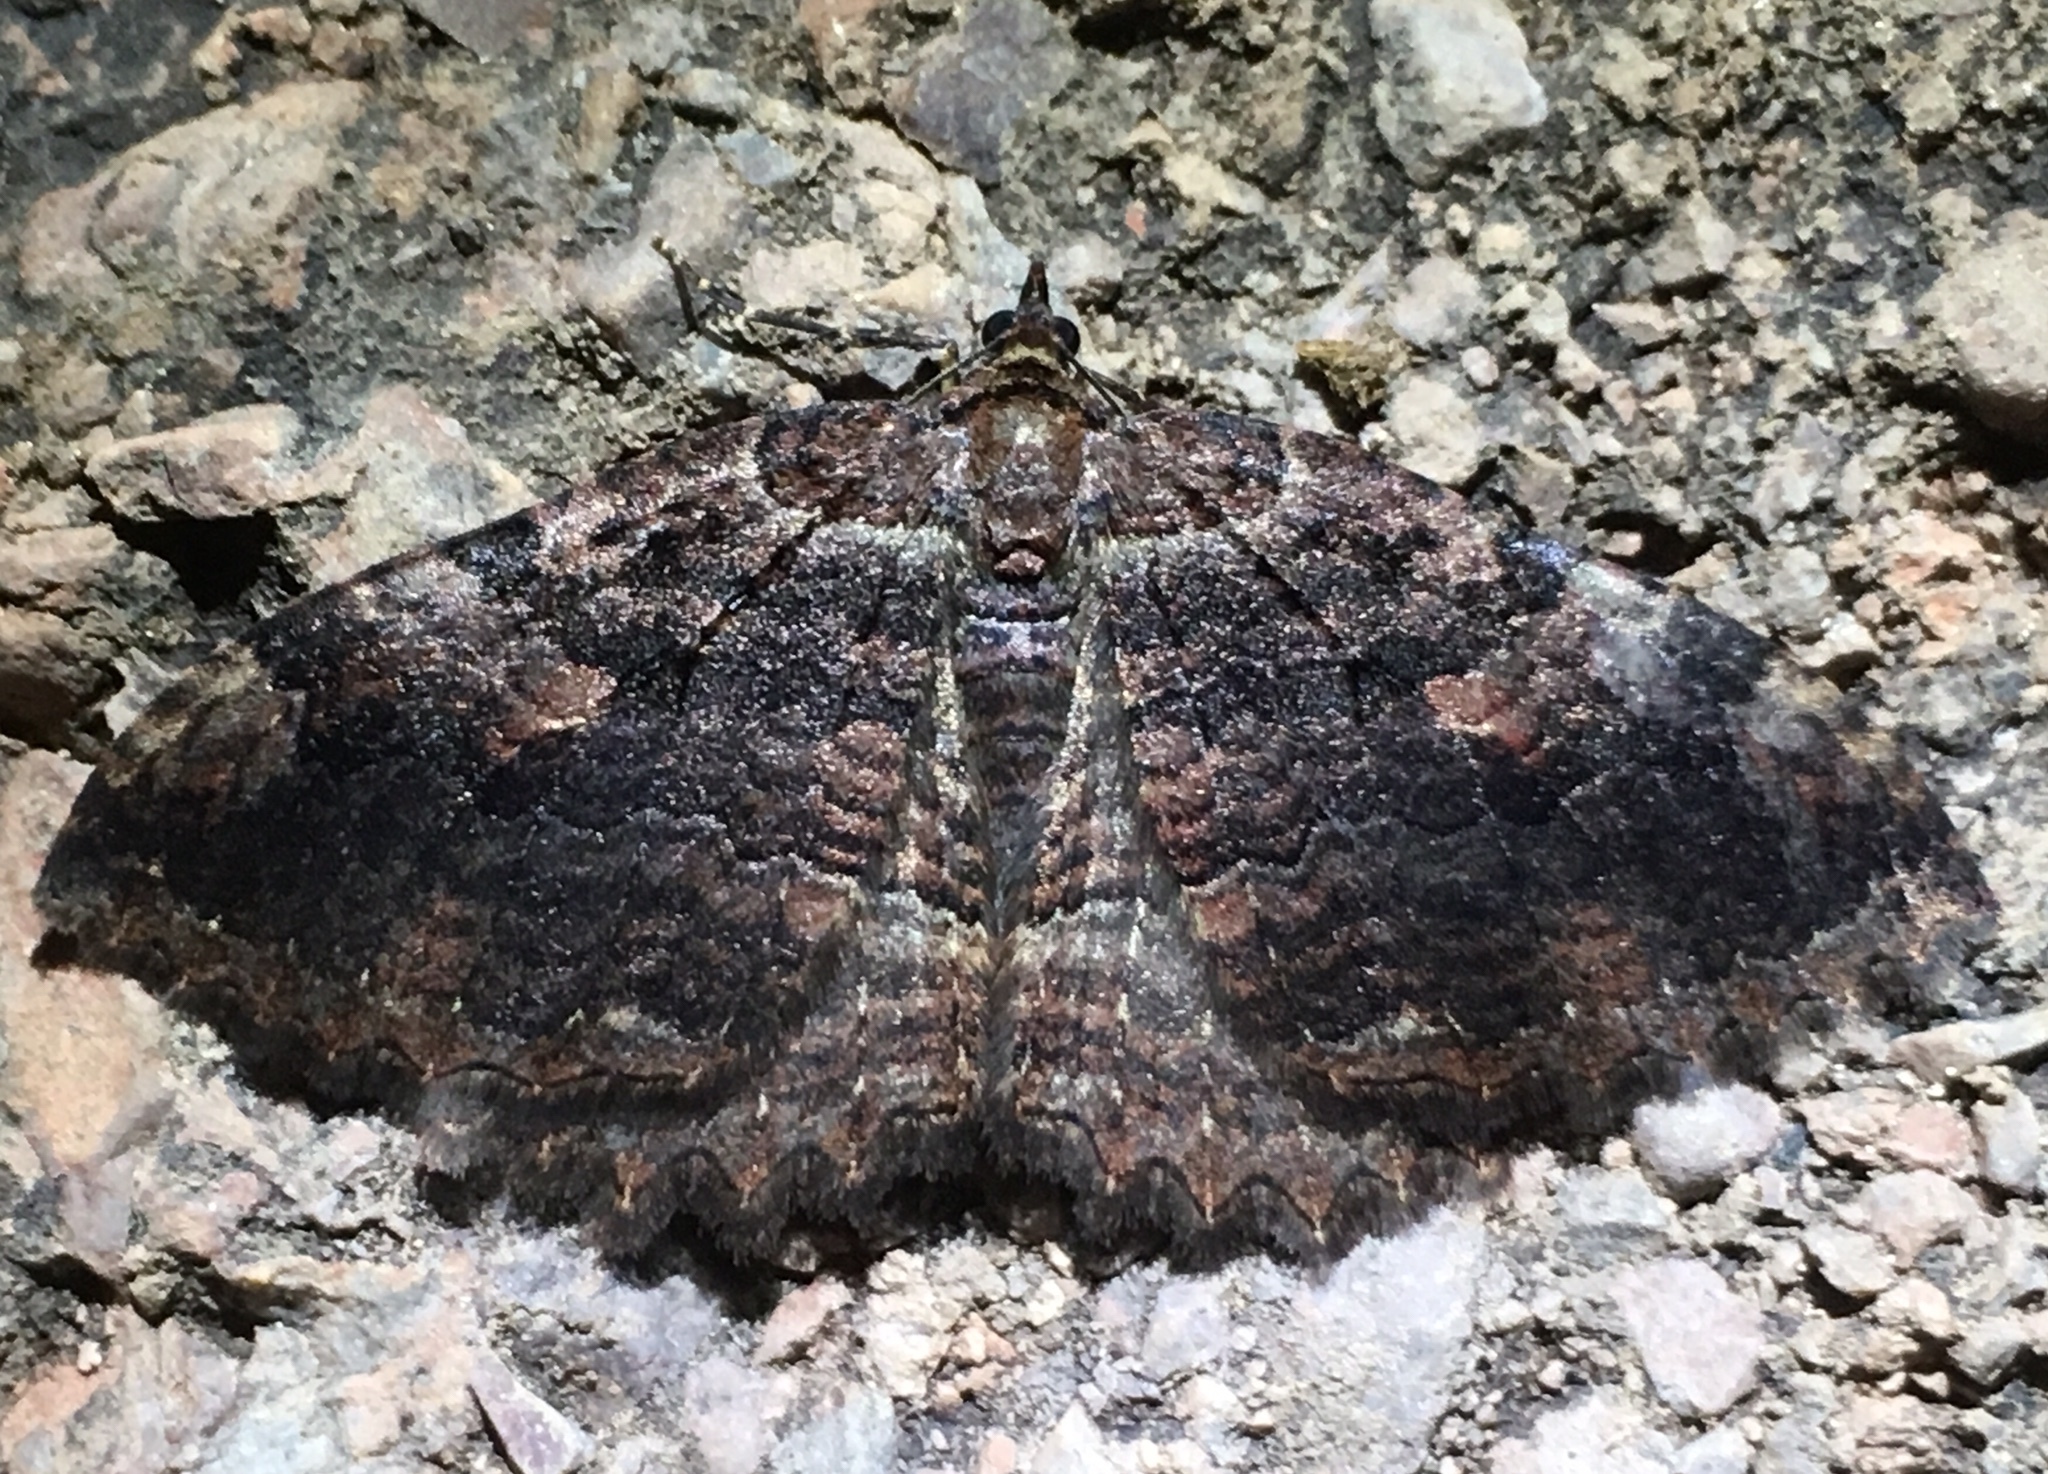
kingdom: Animalia
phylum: Arthropoda
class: Insecta
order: Lepidoptera
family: Geometridae
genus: Triphosa
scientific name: Triphosa haesitata
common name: Tissue moth
